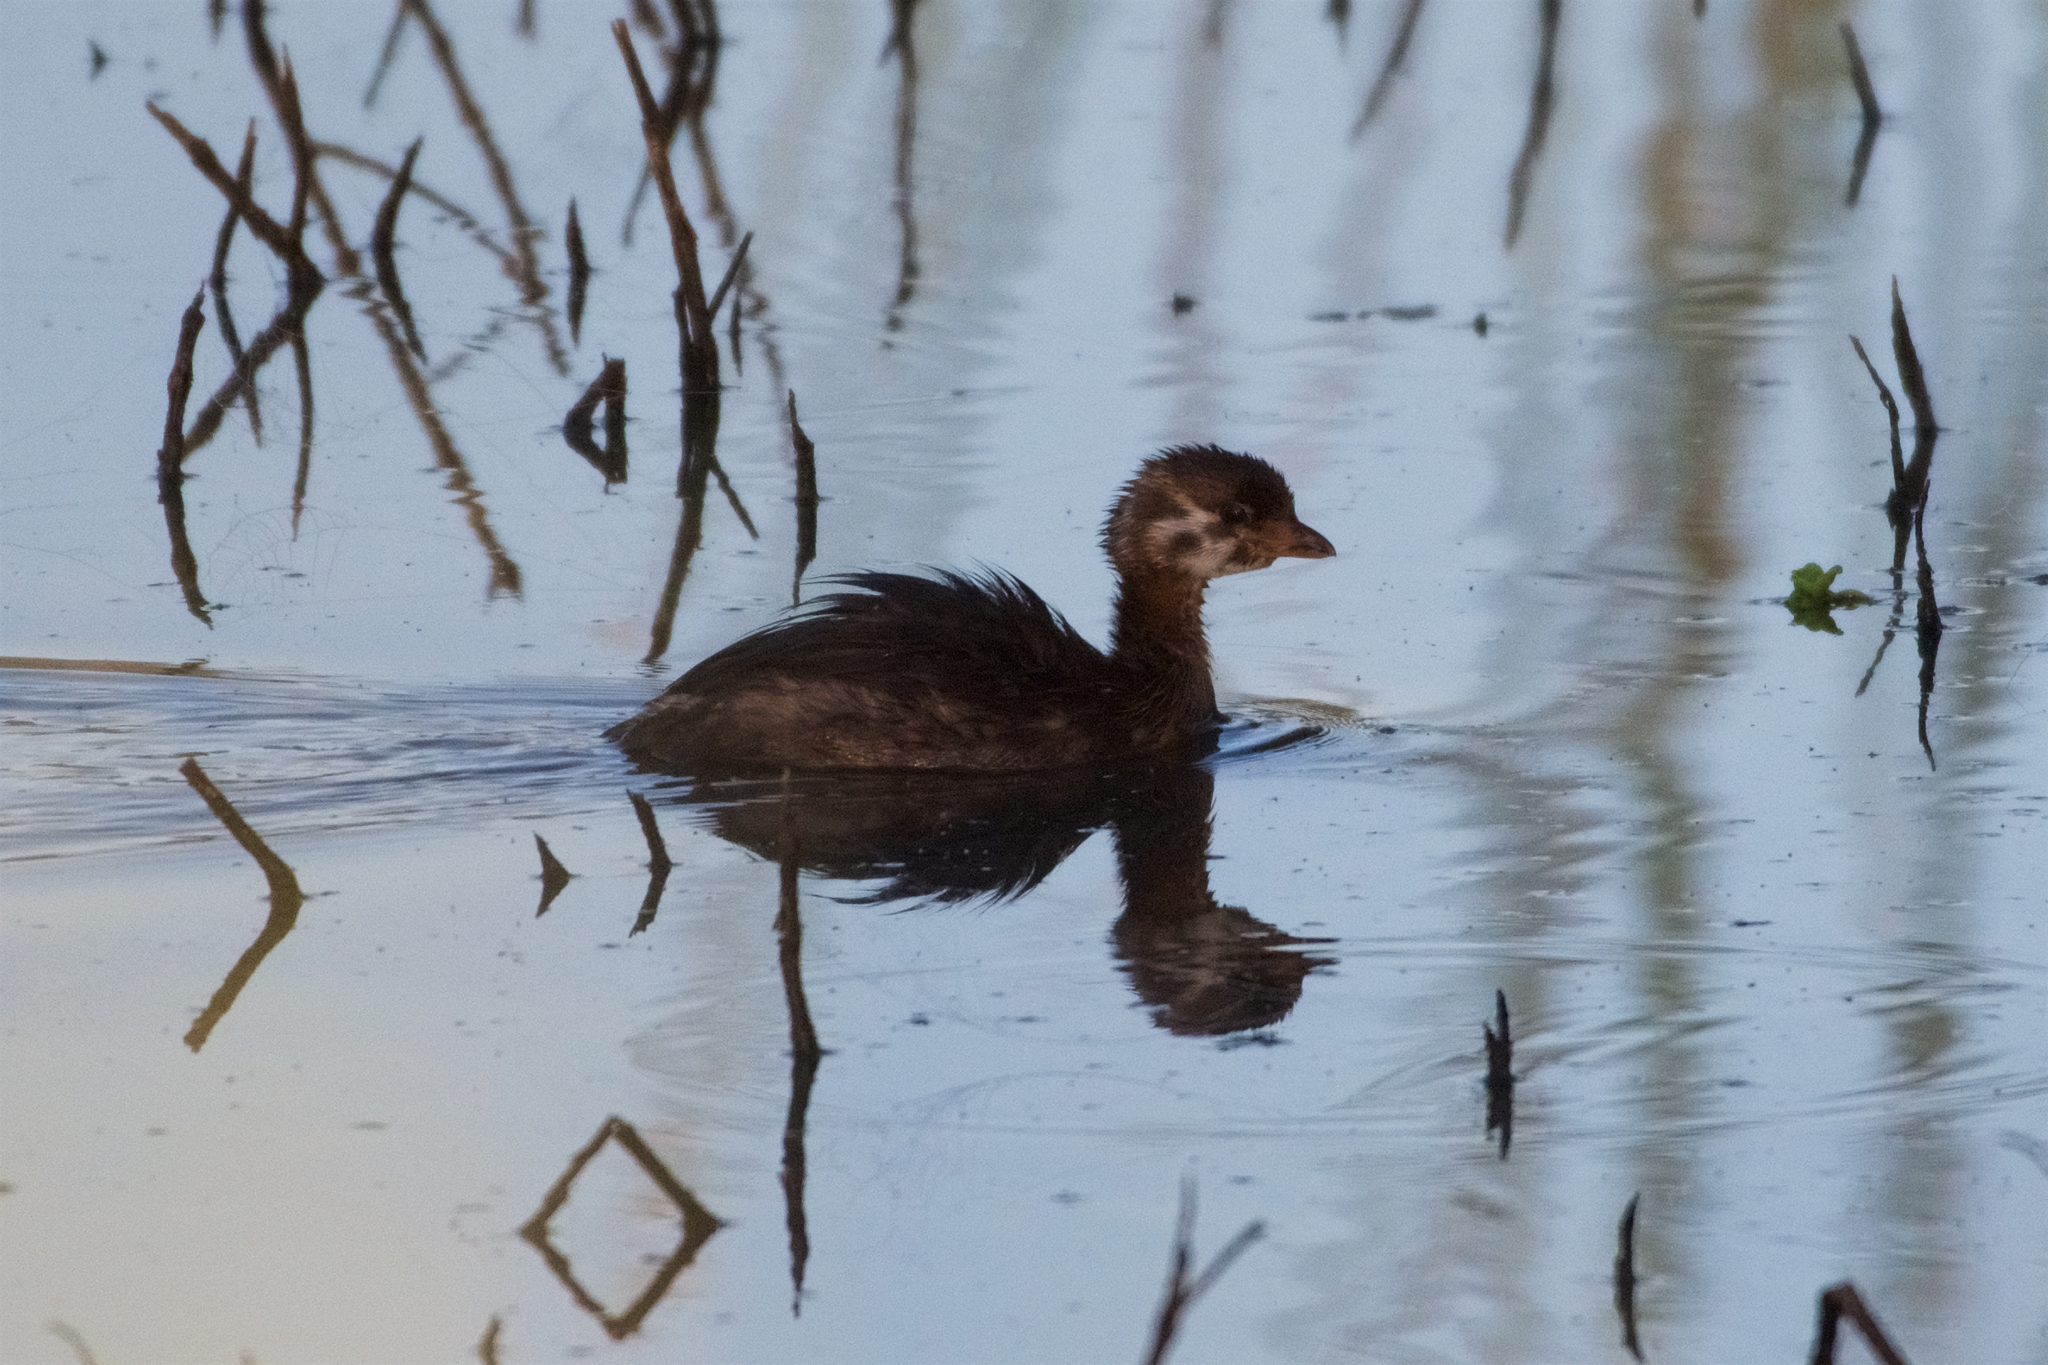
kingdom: Animalia
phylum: Chordata
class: Aves
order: Podicipediformes
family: Podicipedidae
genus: Podilymbus
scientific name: Podilymbus podiceps
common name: Pied-billed grebe
